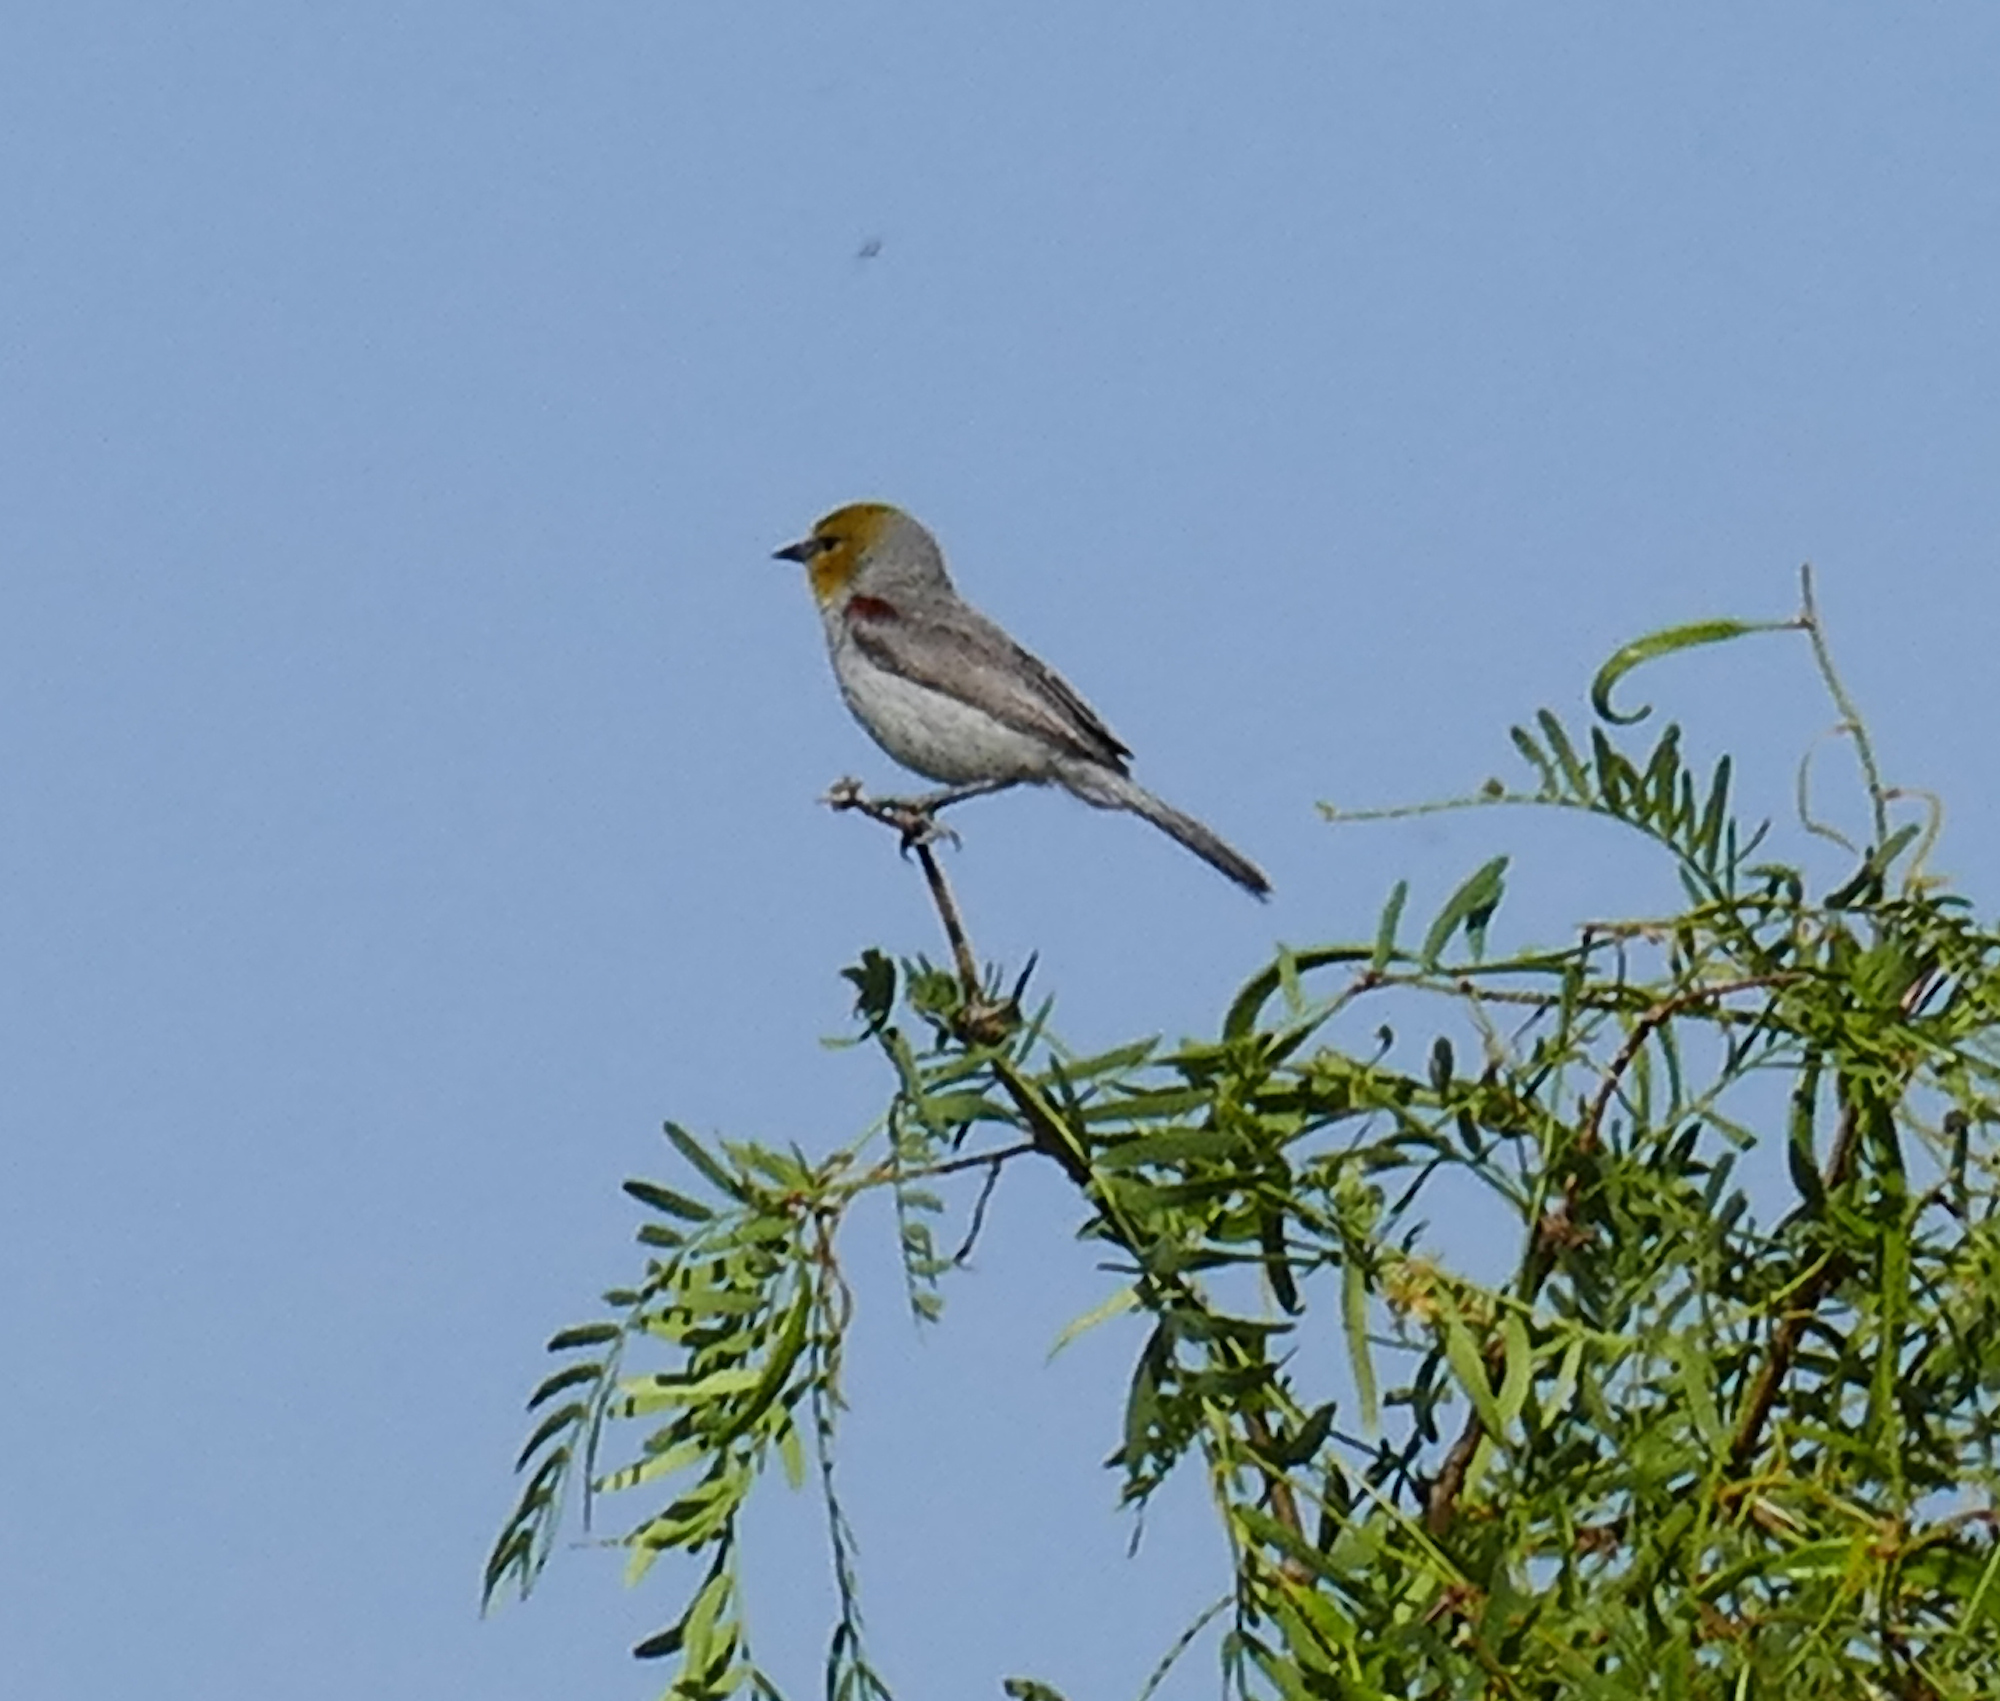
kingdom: Animalia
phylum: Chordata
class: Aves
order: Passeriformes
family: Remizidae
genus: Auriparus
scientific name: Auriparus flaviceps
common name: Verdin
